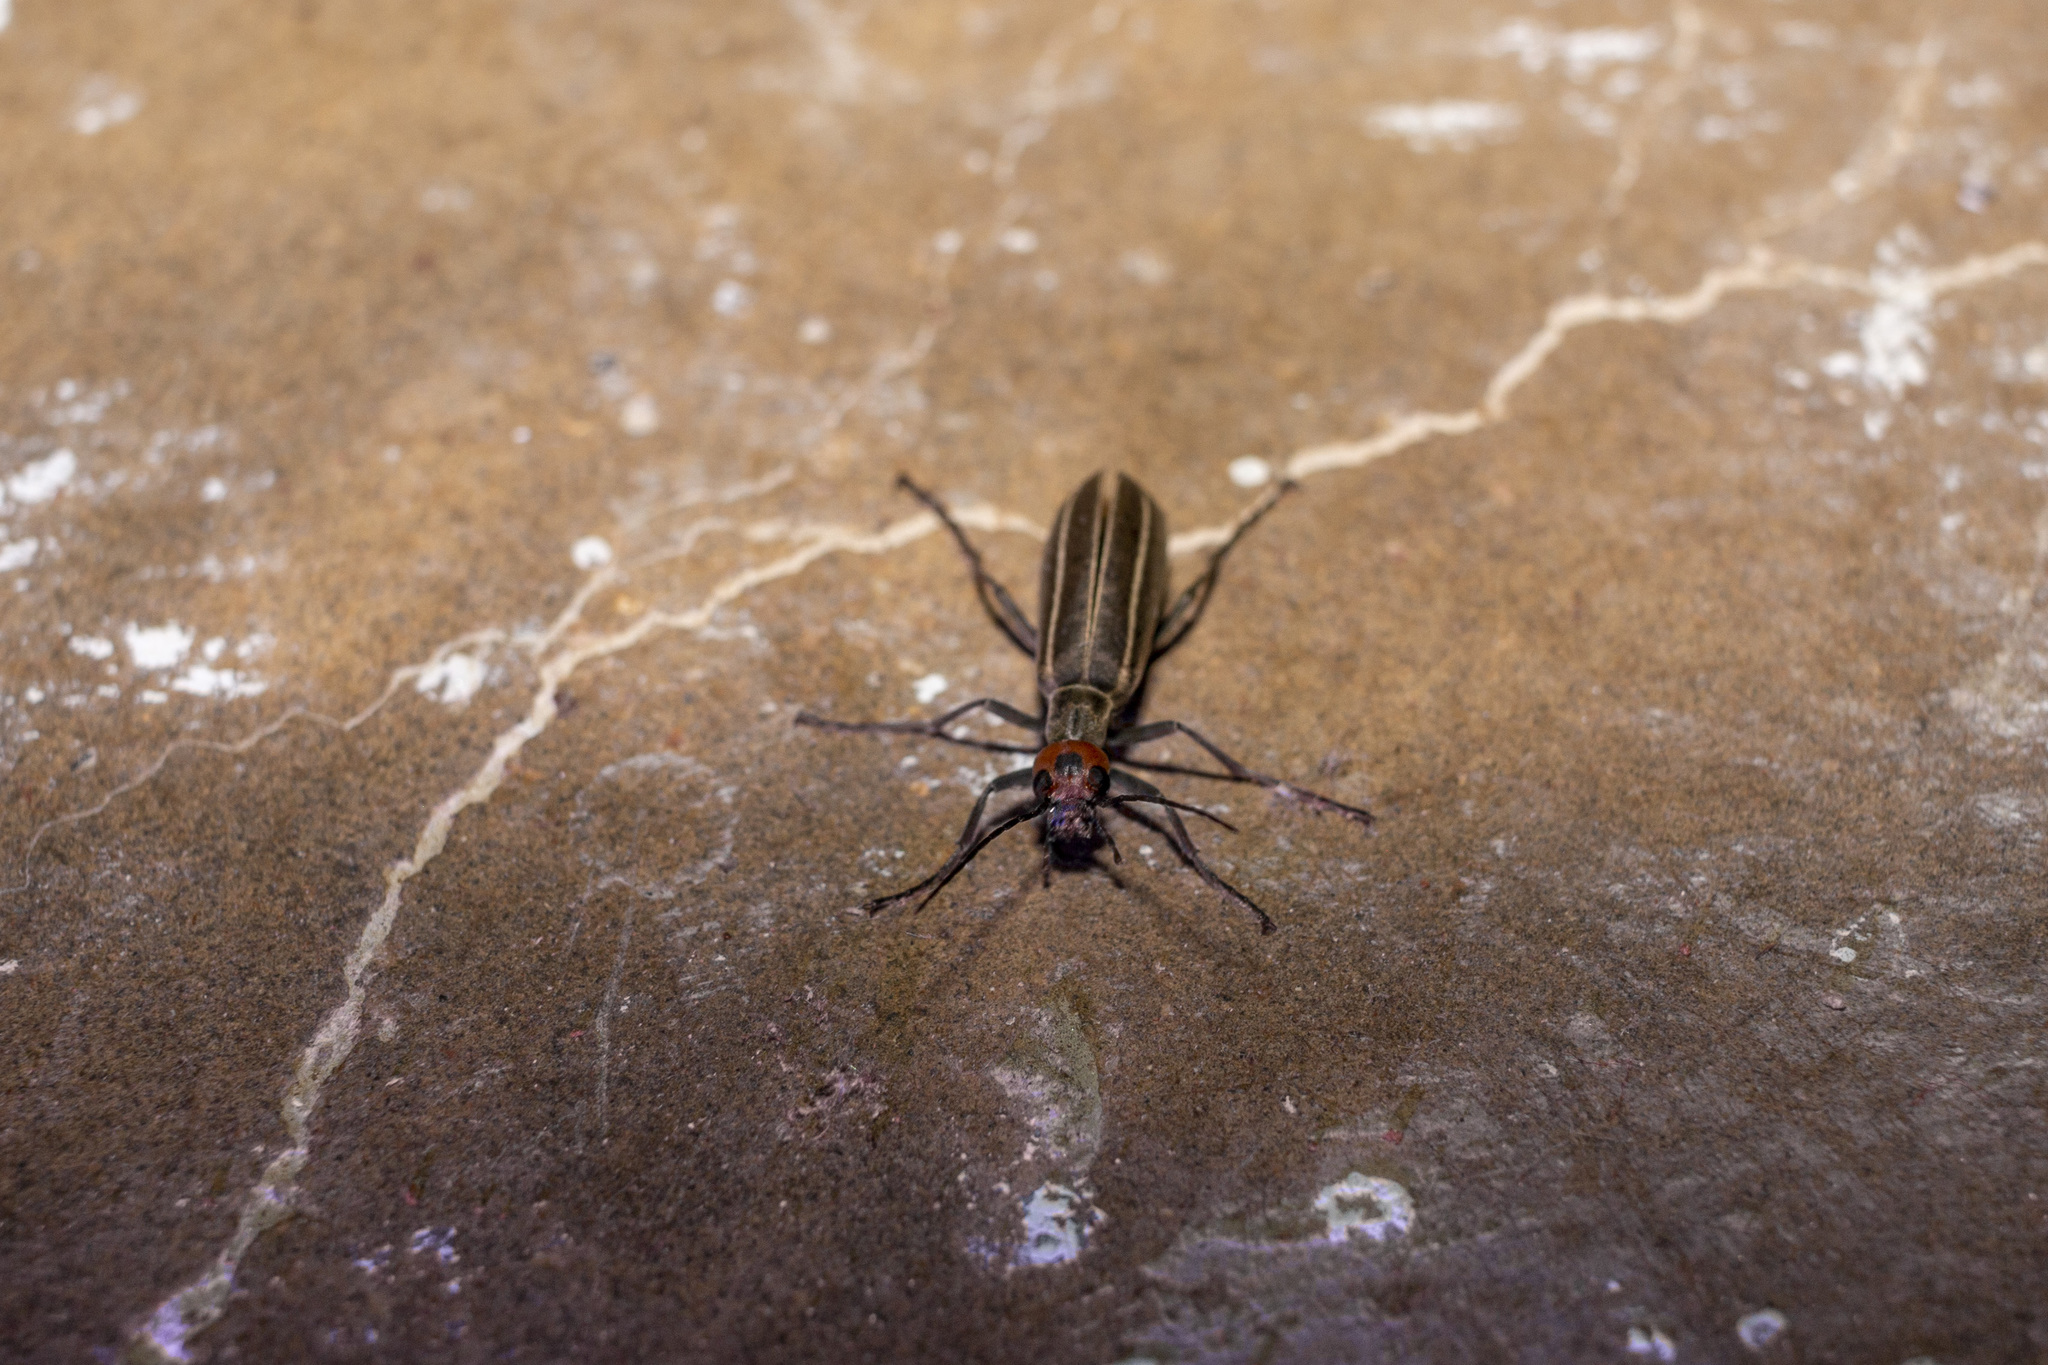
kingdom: Animalia
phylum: Arthropoda
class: Insecta
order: Coleoptera
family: Meloidae
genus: Epicauta
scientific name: Epicauta grammica
